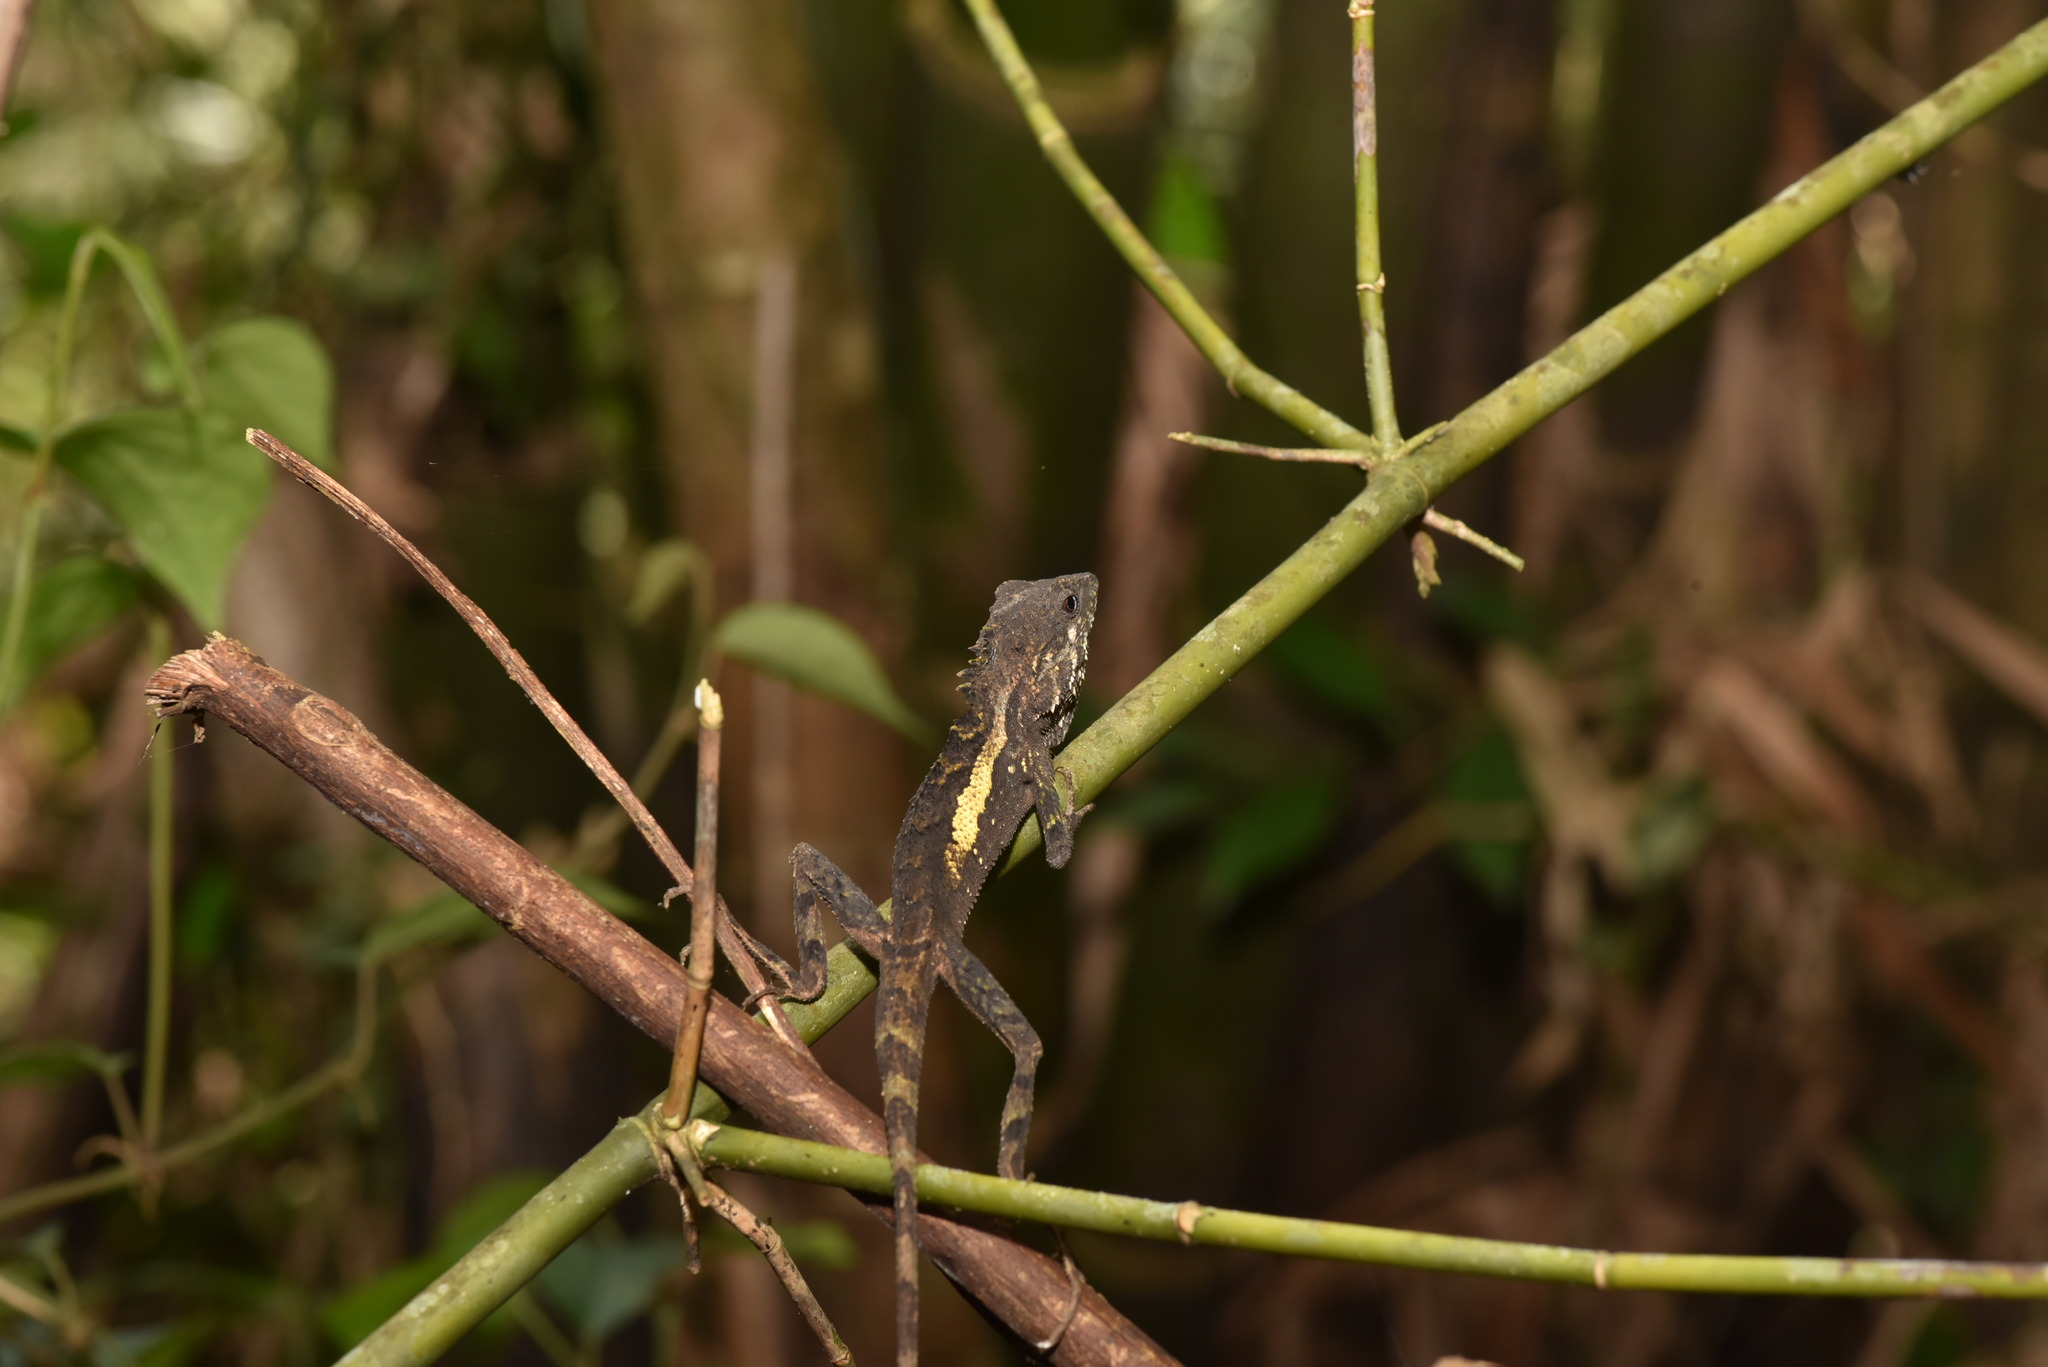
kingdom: Animalia
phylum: Chordata
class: Squamata
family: Agamidae
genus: Diploderma
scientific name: Diploderma swinhonis
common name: Taiwan japalure
